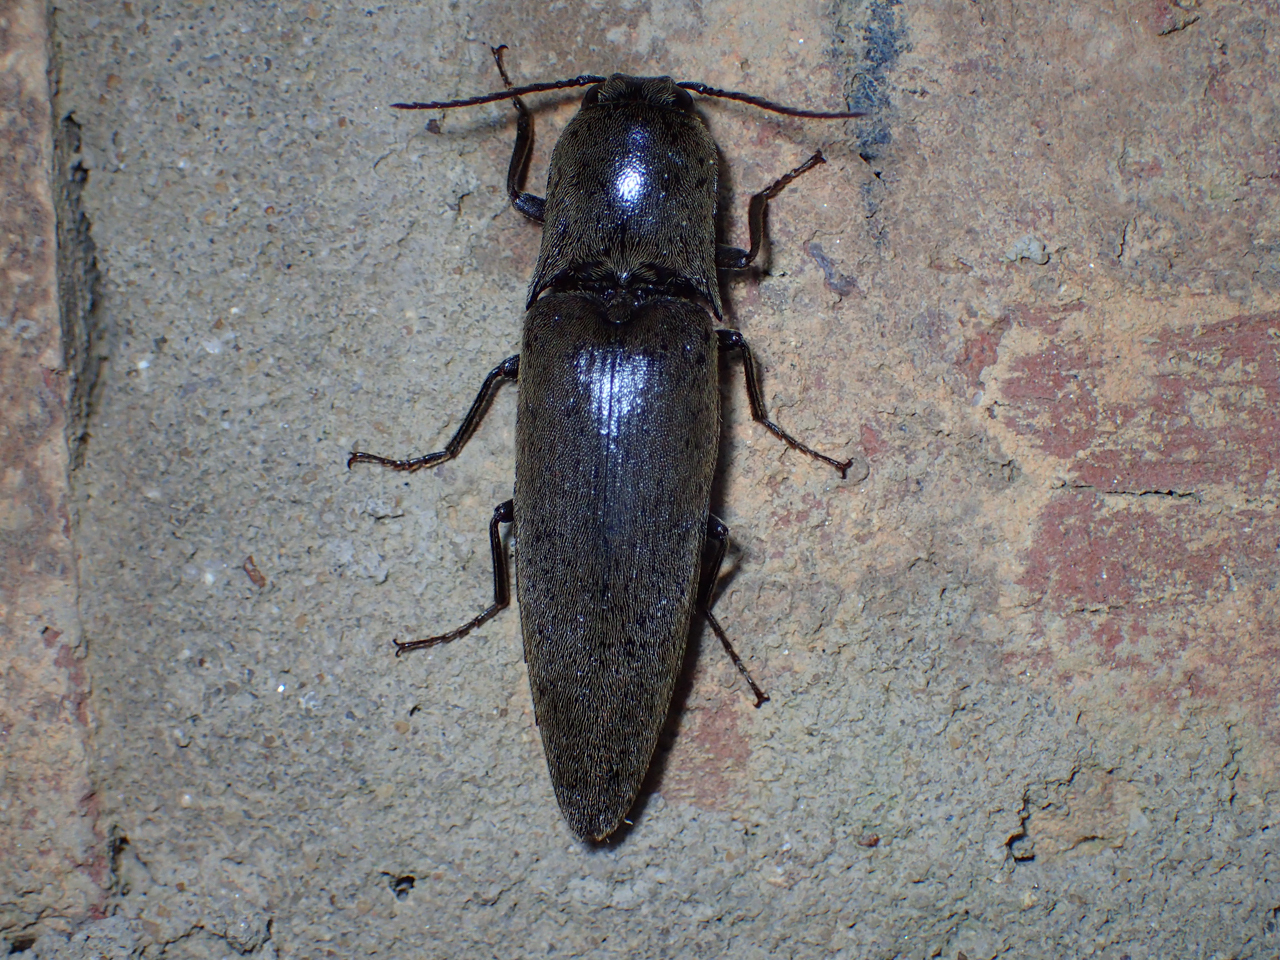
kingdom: Animalia
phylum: Arthropoda
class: Insecta
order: Coleoptera
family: Elateridae
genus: Orthostethus
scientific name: Orthostethus infuscatus
